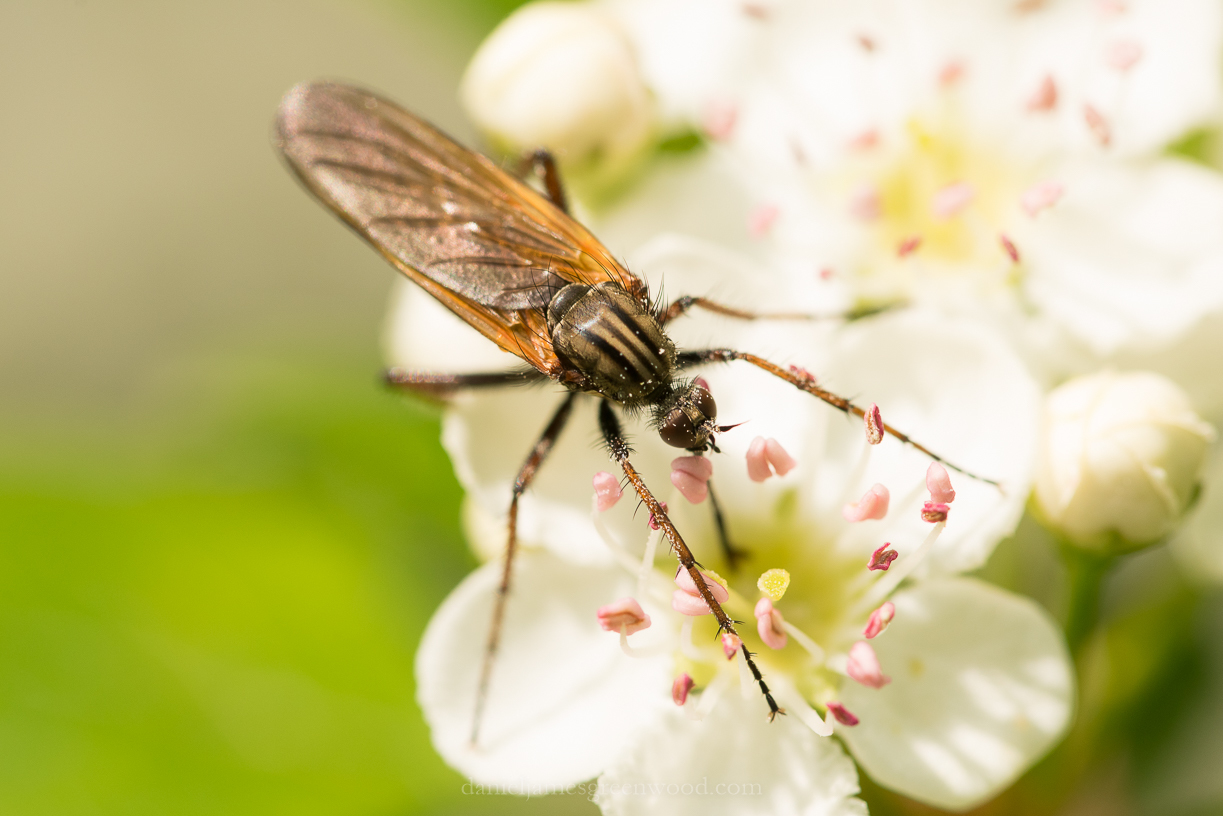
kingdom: Animalia
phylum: Arthropoda
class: Insecta
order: Diptera
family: Empididae
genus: Empis
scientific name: Empis tessellata
